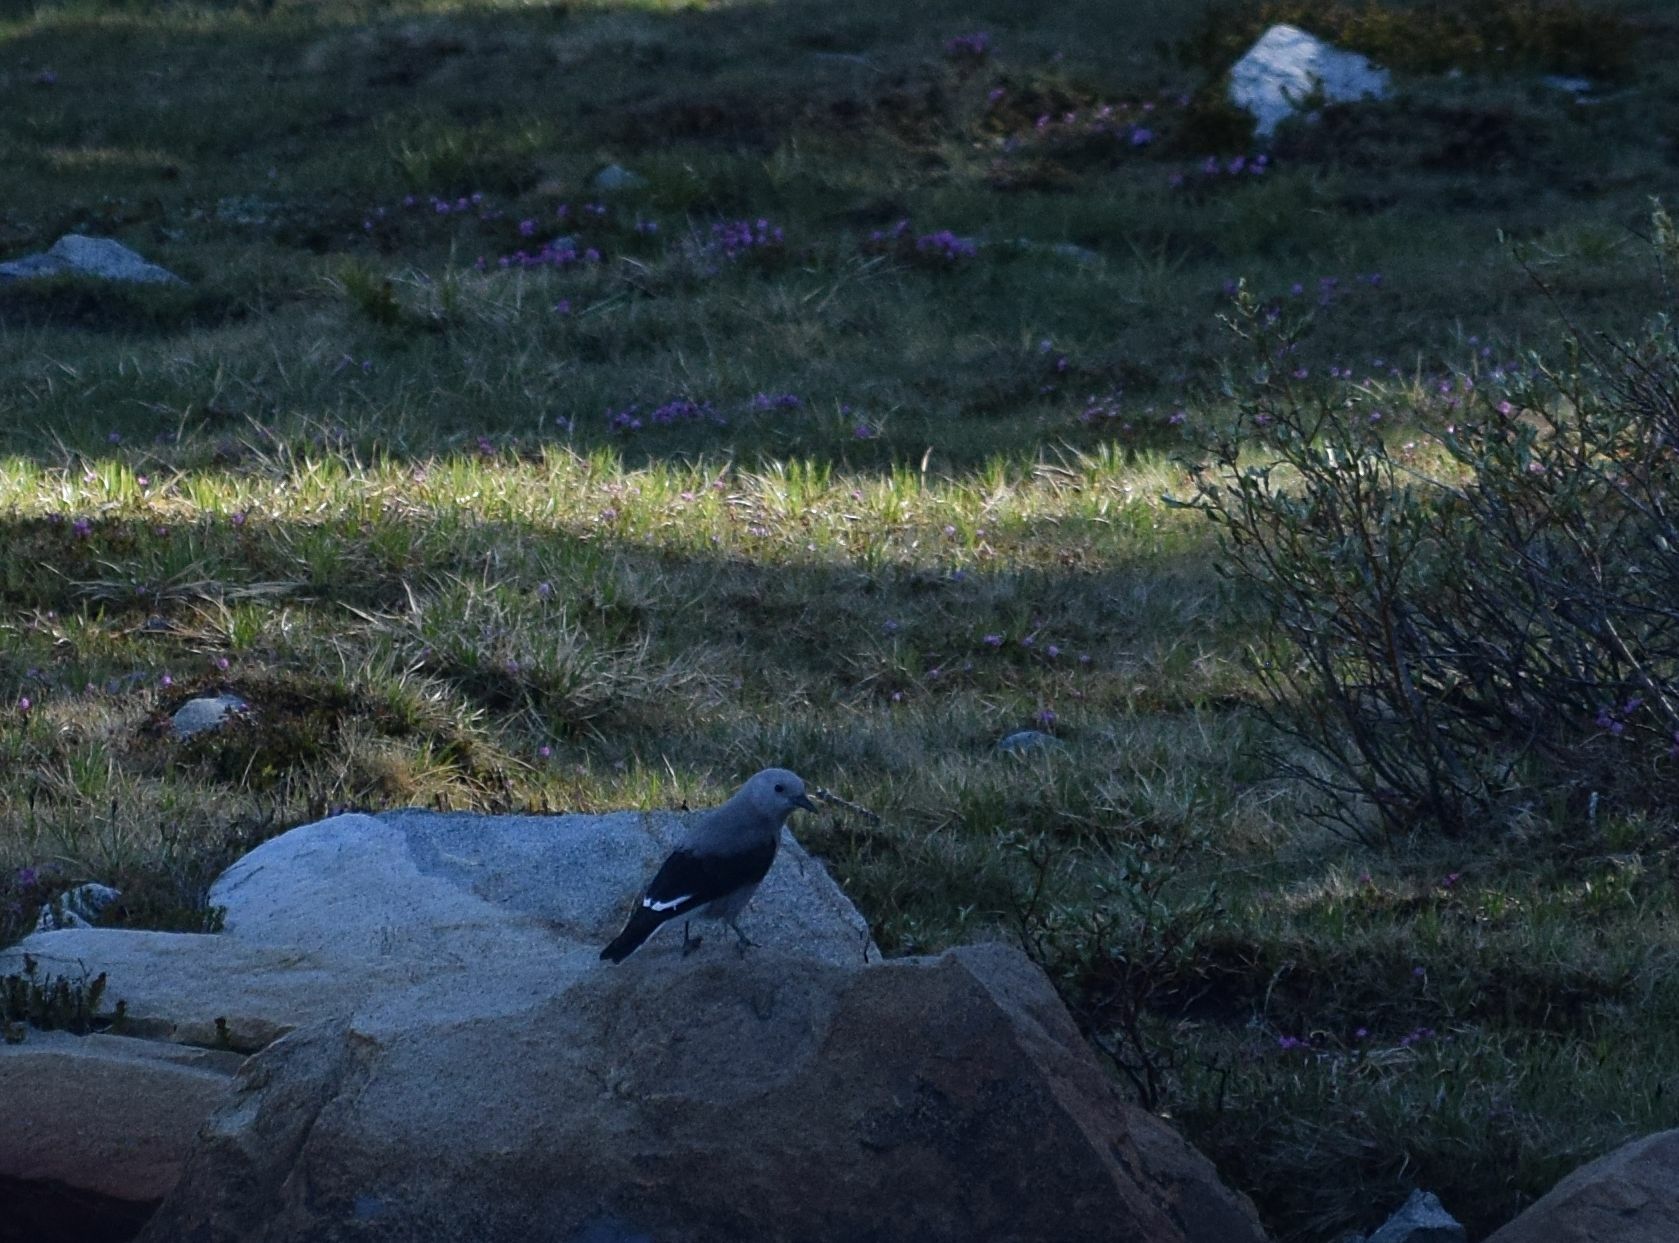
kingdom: Animalia
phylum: Chordata
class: Aves
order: Passeriformes
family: Corvidae
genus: Nucifraga
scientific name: Nucifraga columbiana
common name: Clark's nutcracker
